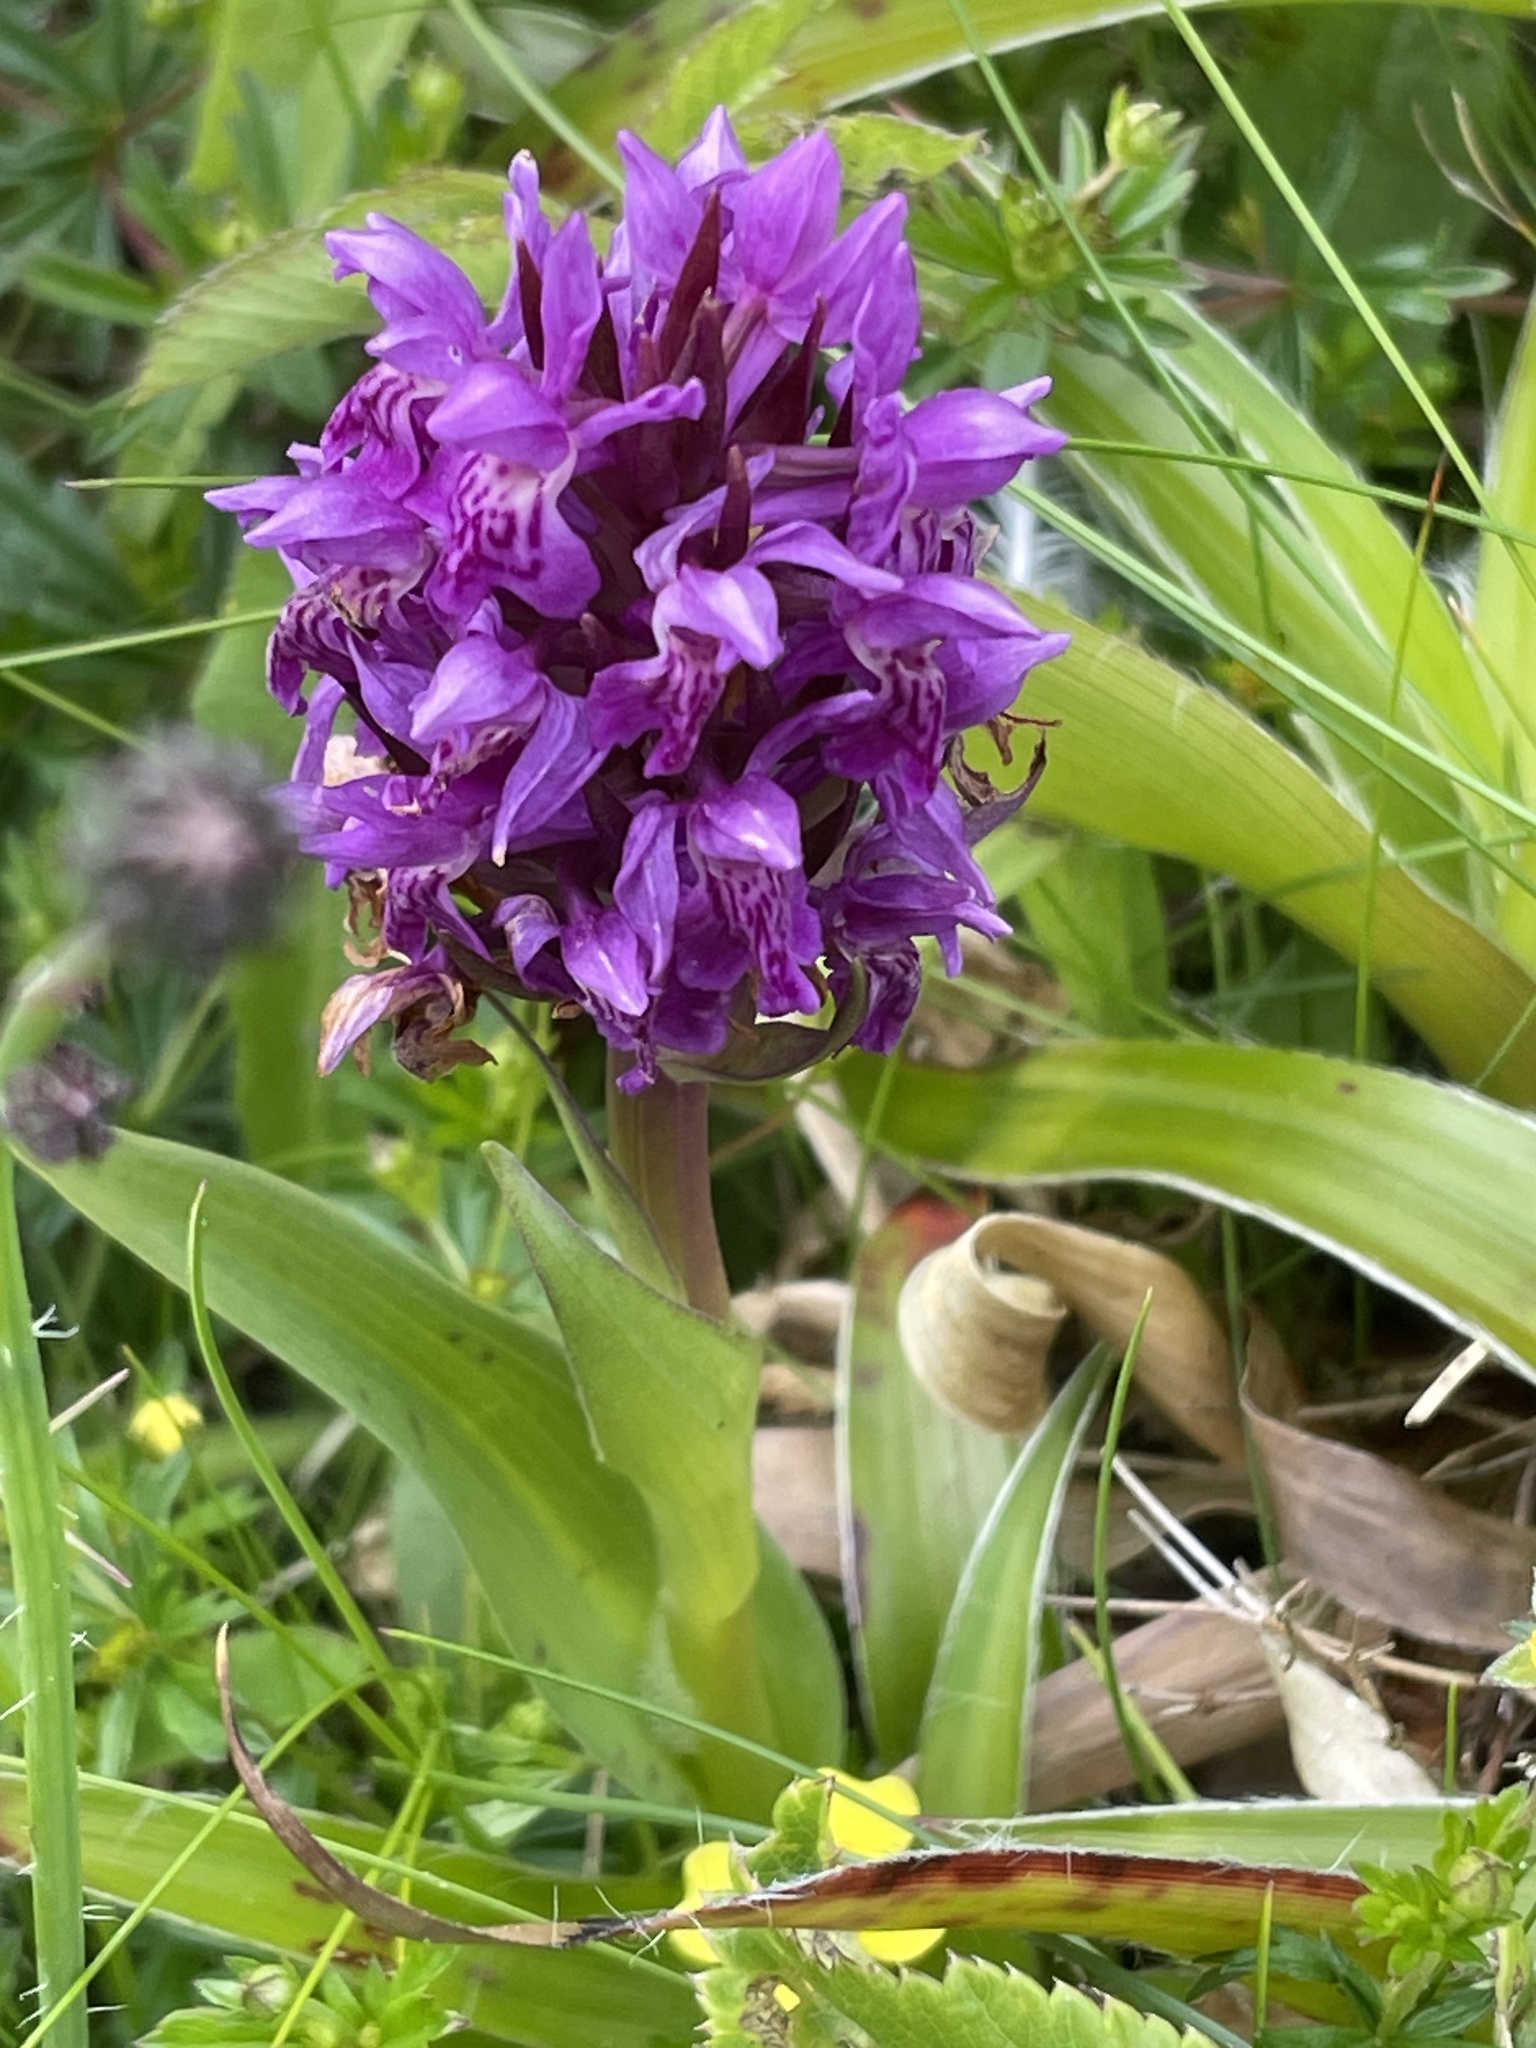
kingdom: Plantae
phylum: Tracheophyta
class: Liliopsida
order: Asparagales
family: Orchidaceae
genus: Dactylorhiza
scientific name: Dactylorhiza majalis
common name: Marsh orchid
